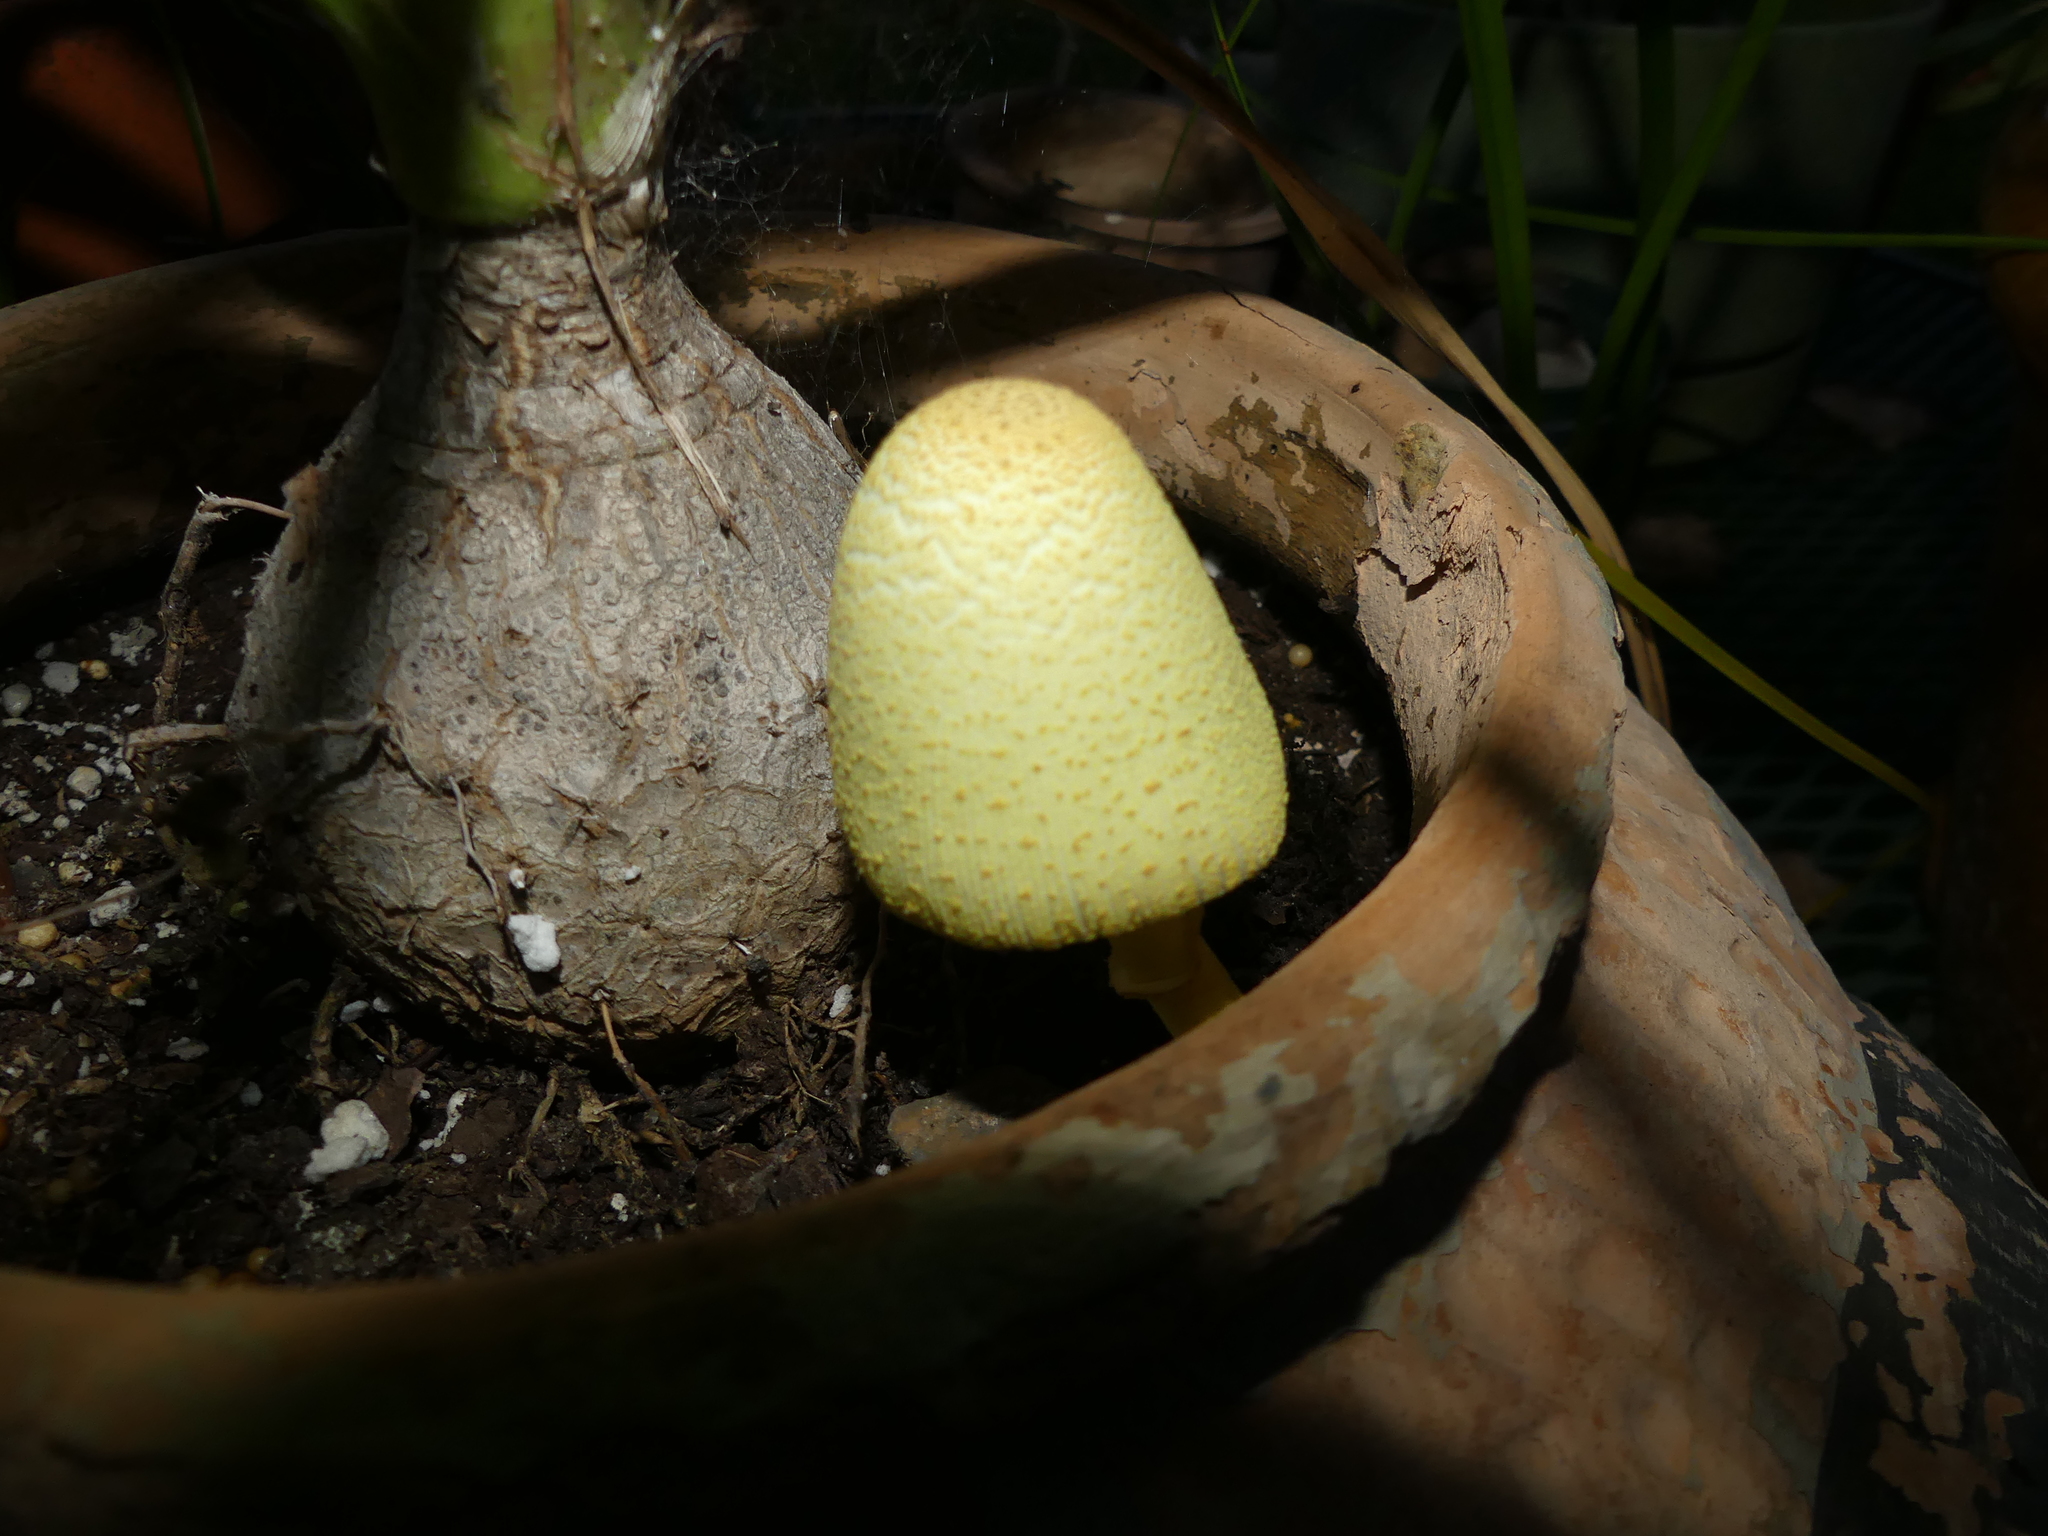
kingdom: Fungi
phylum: Basidiomycota
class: Agaricomycetes
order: Agaricales
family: Agaricaceae
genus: Leucocoprinus
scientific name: Leucocoprinus birnbaumii
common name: Plantpot dapperling
